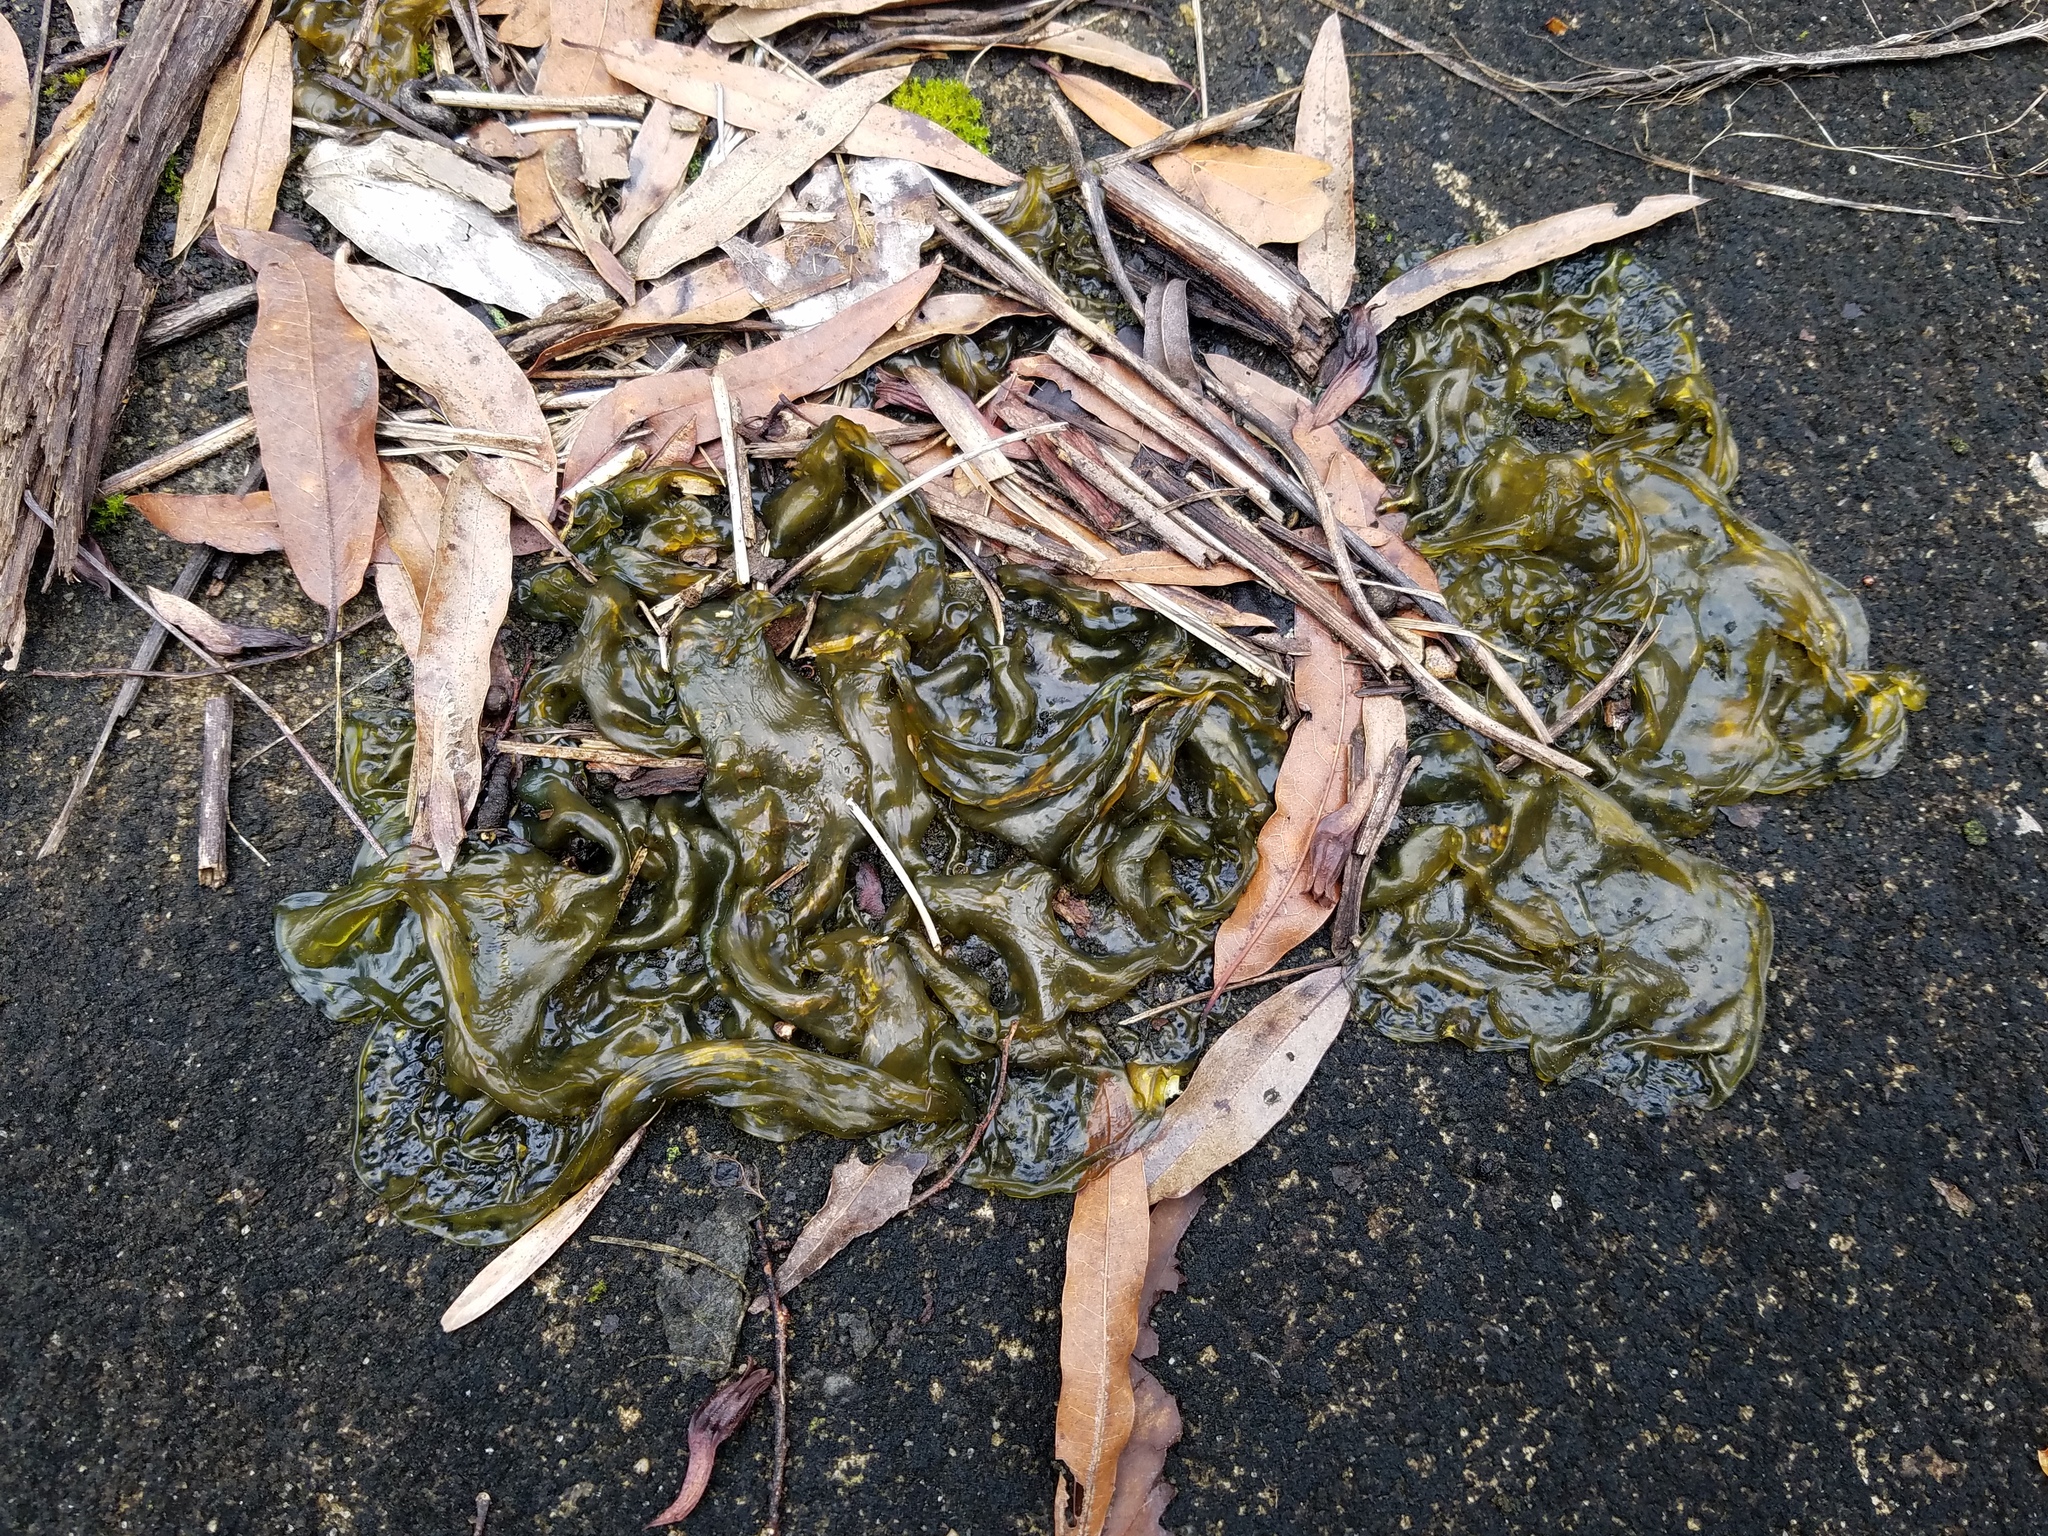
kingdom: Bacteria
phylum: Cyanobacteria
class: Cyanobacteriia
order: Cyanobacteriales
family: Nostocaceae
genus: Nostoc
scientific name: Nostoc commune
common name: Star jelly
